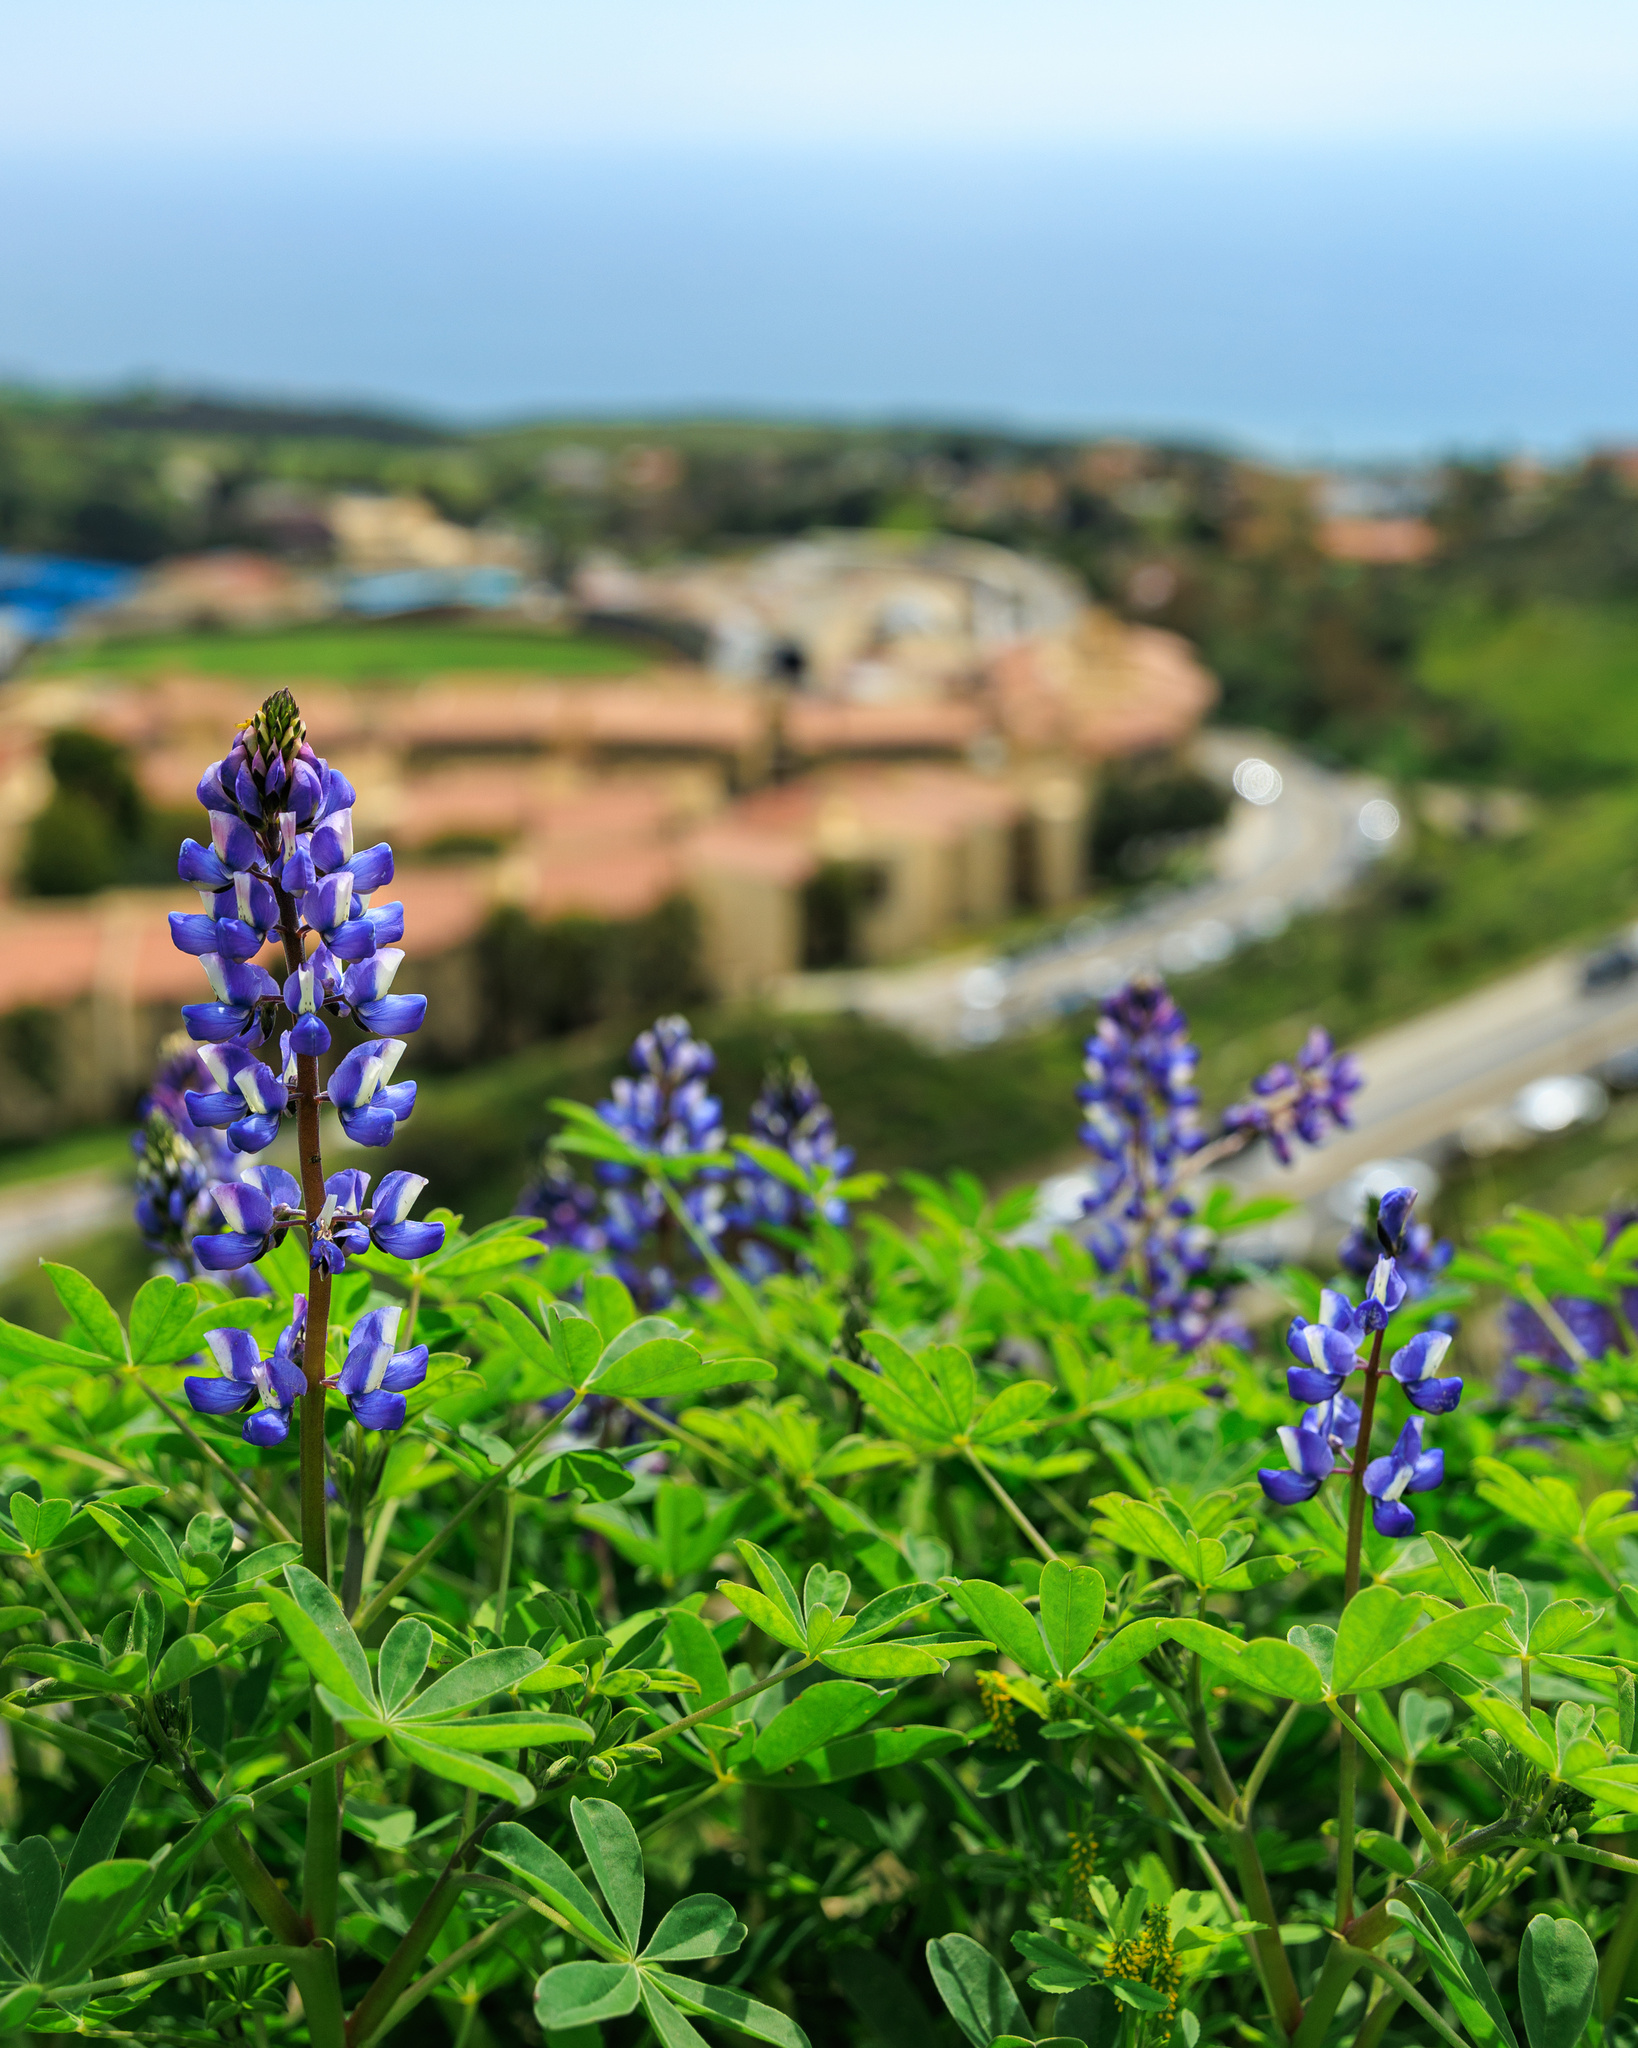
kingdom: Plantae
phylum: Tracheophyta
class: Magnoliopsida
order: Fabales
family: Fabaceae
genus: Lupinus
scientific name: Lupinus succulentus
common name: Arroyo lupine
